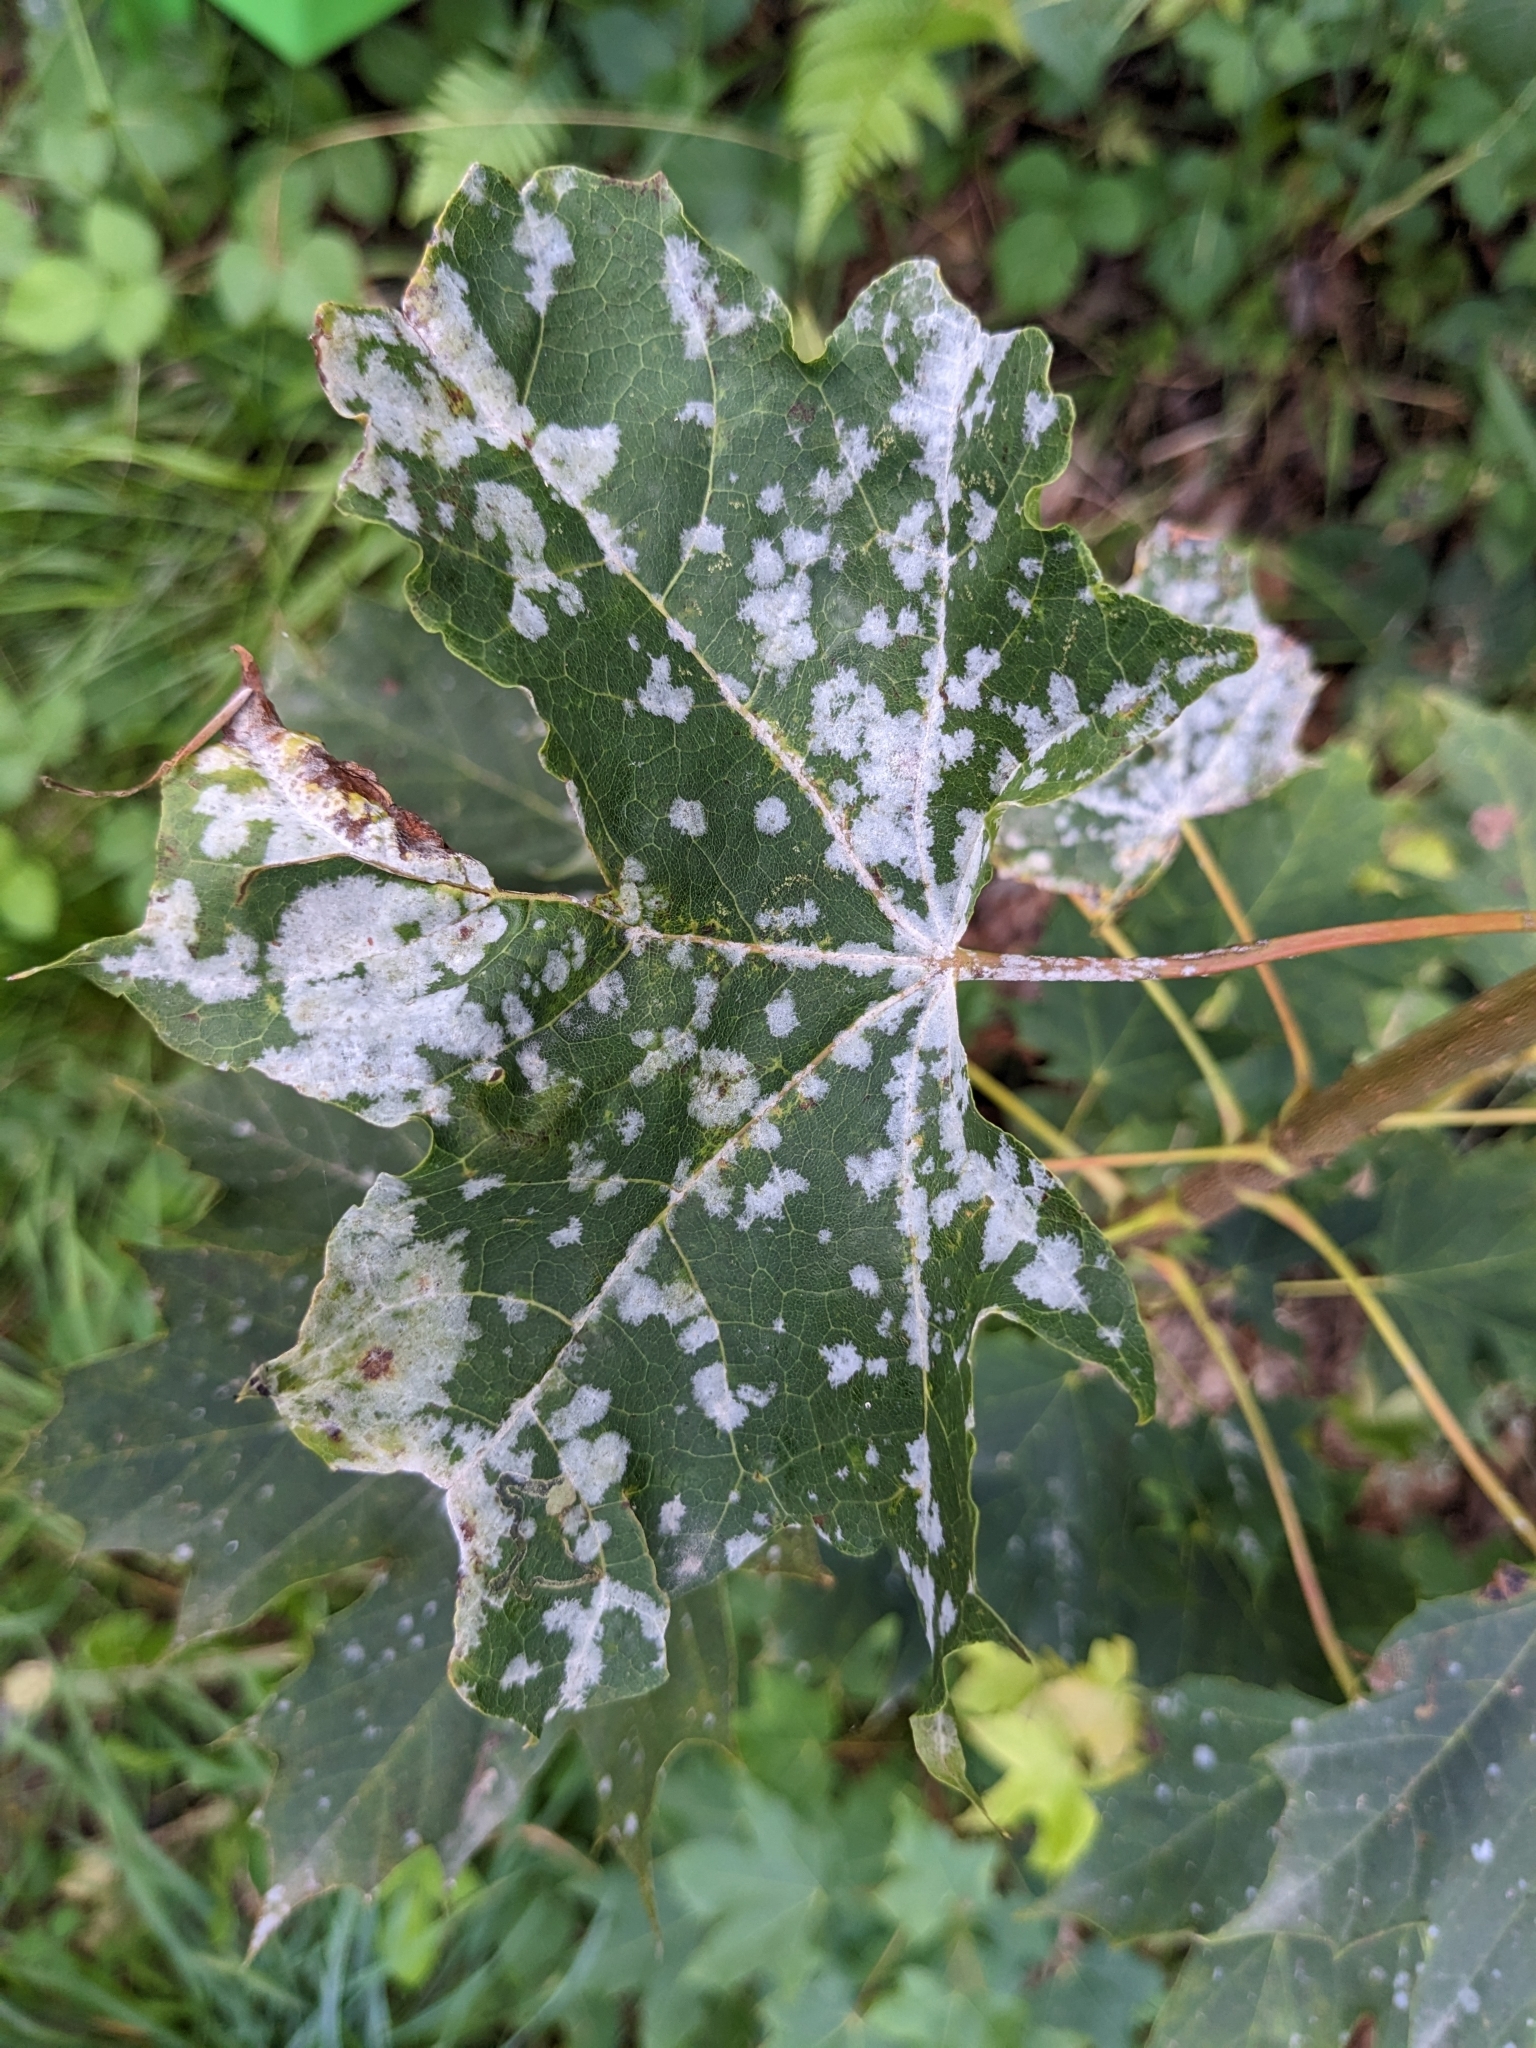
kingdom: Fungi
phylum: Ascomycota
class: Leotiomycetes
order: Helotiales
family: Erysiphaceae
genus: Sawadaea
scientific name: Sawadaea tulasnei
